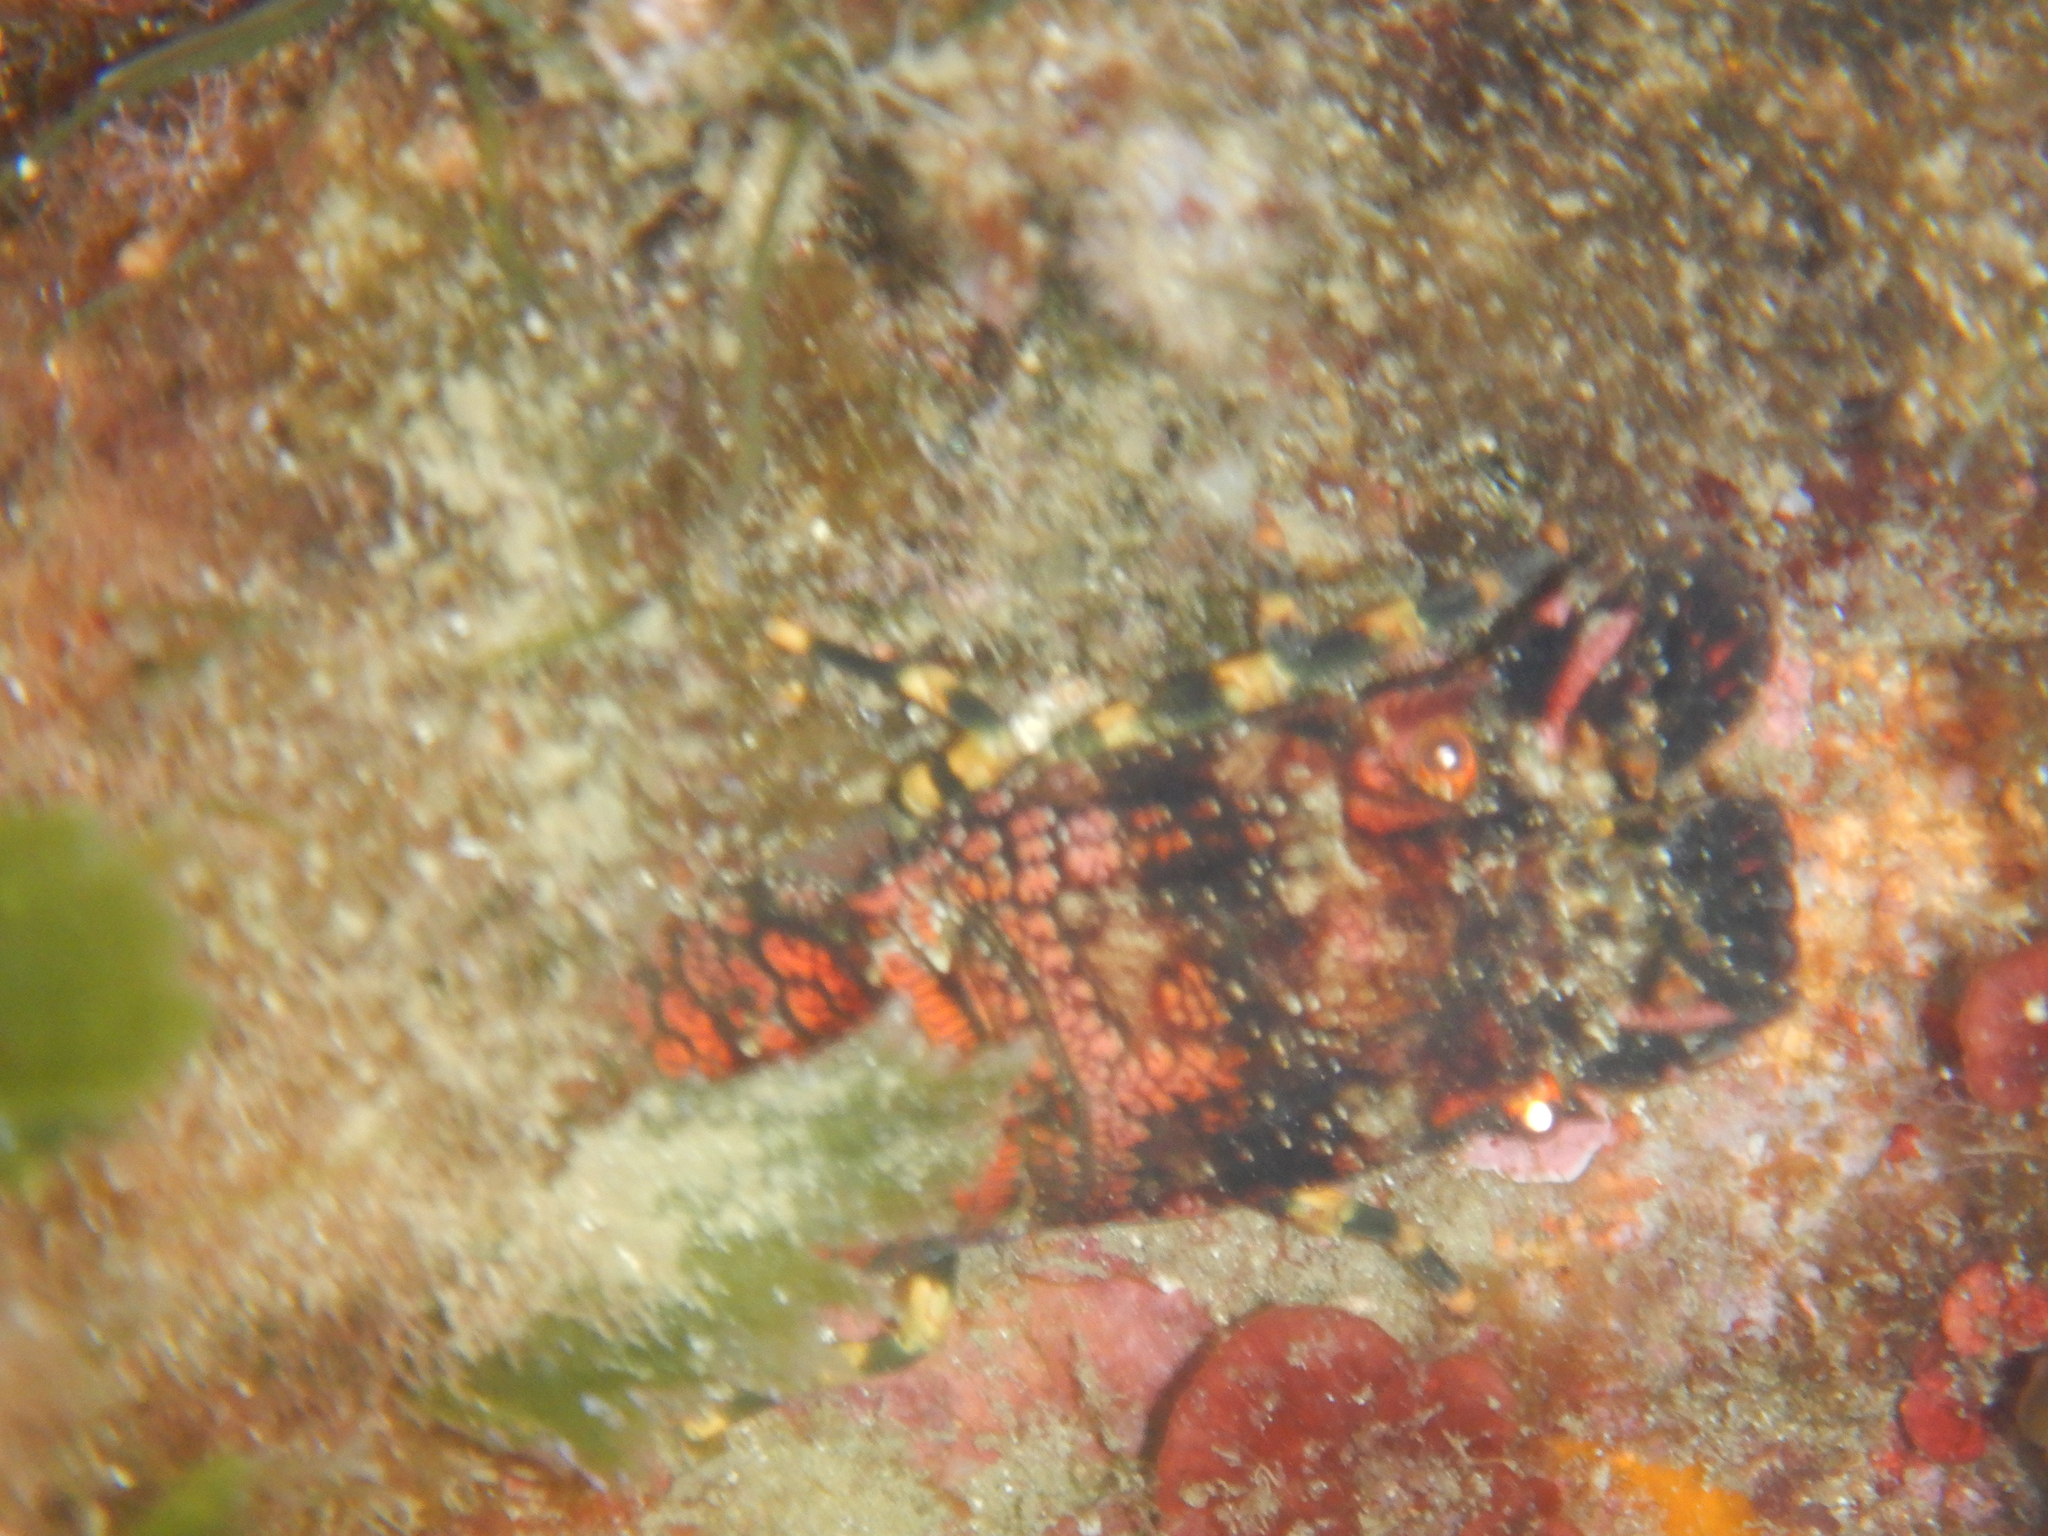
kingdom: Animalia
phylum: Arthropoda
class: Malacostraca
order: Decapoda
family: Scyllaridae
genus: Scyllarus
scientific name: Scyllarus arctus
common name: Small european locust lobster
